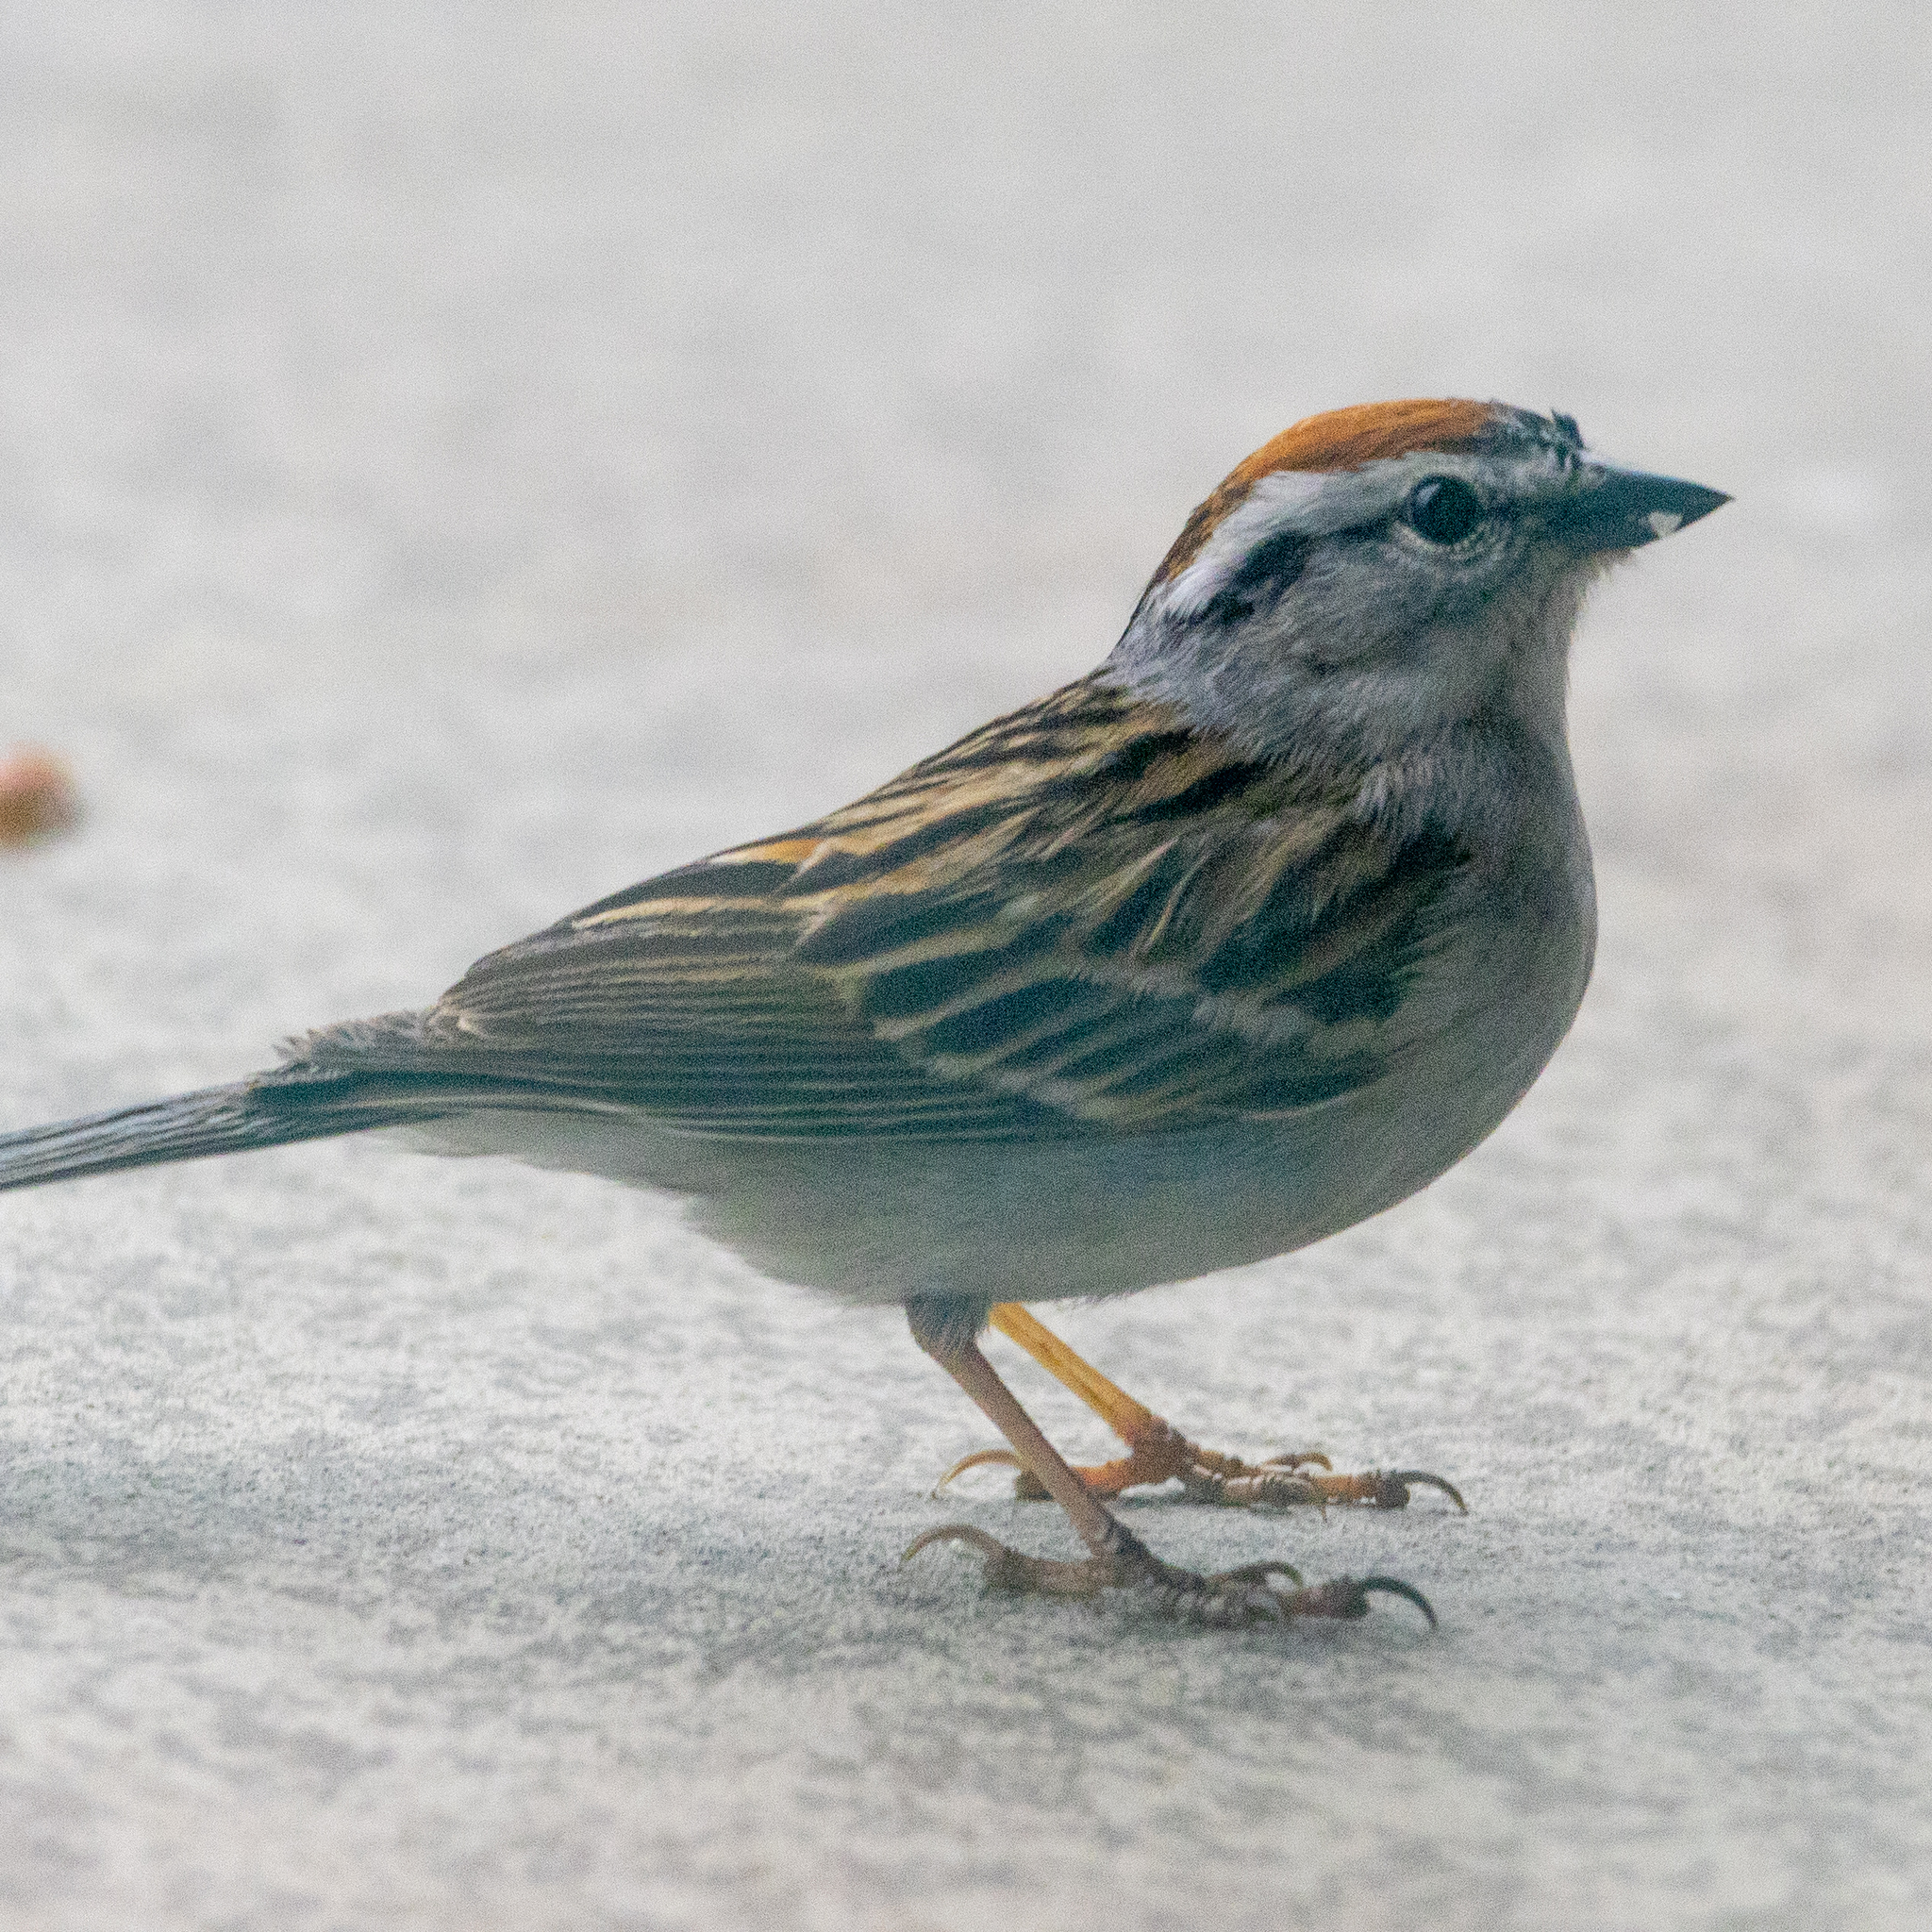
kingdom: Animalia
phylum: Chordata
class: Aves
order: Passeriformes
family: Passerellidae
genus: Spizella
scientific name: Spizella passerina
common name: Chipping sparrow
